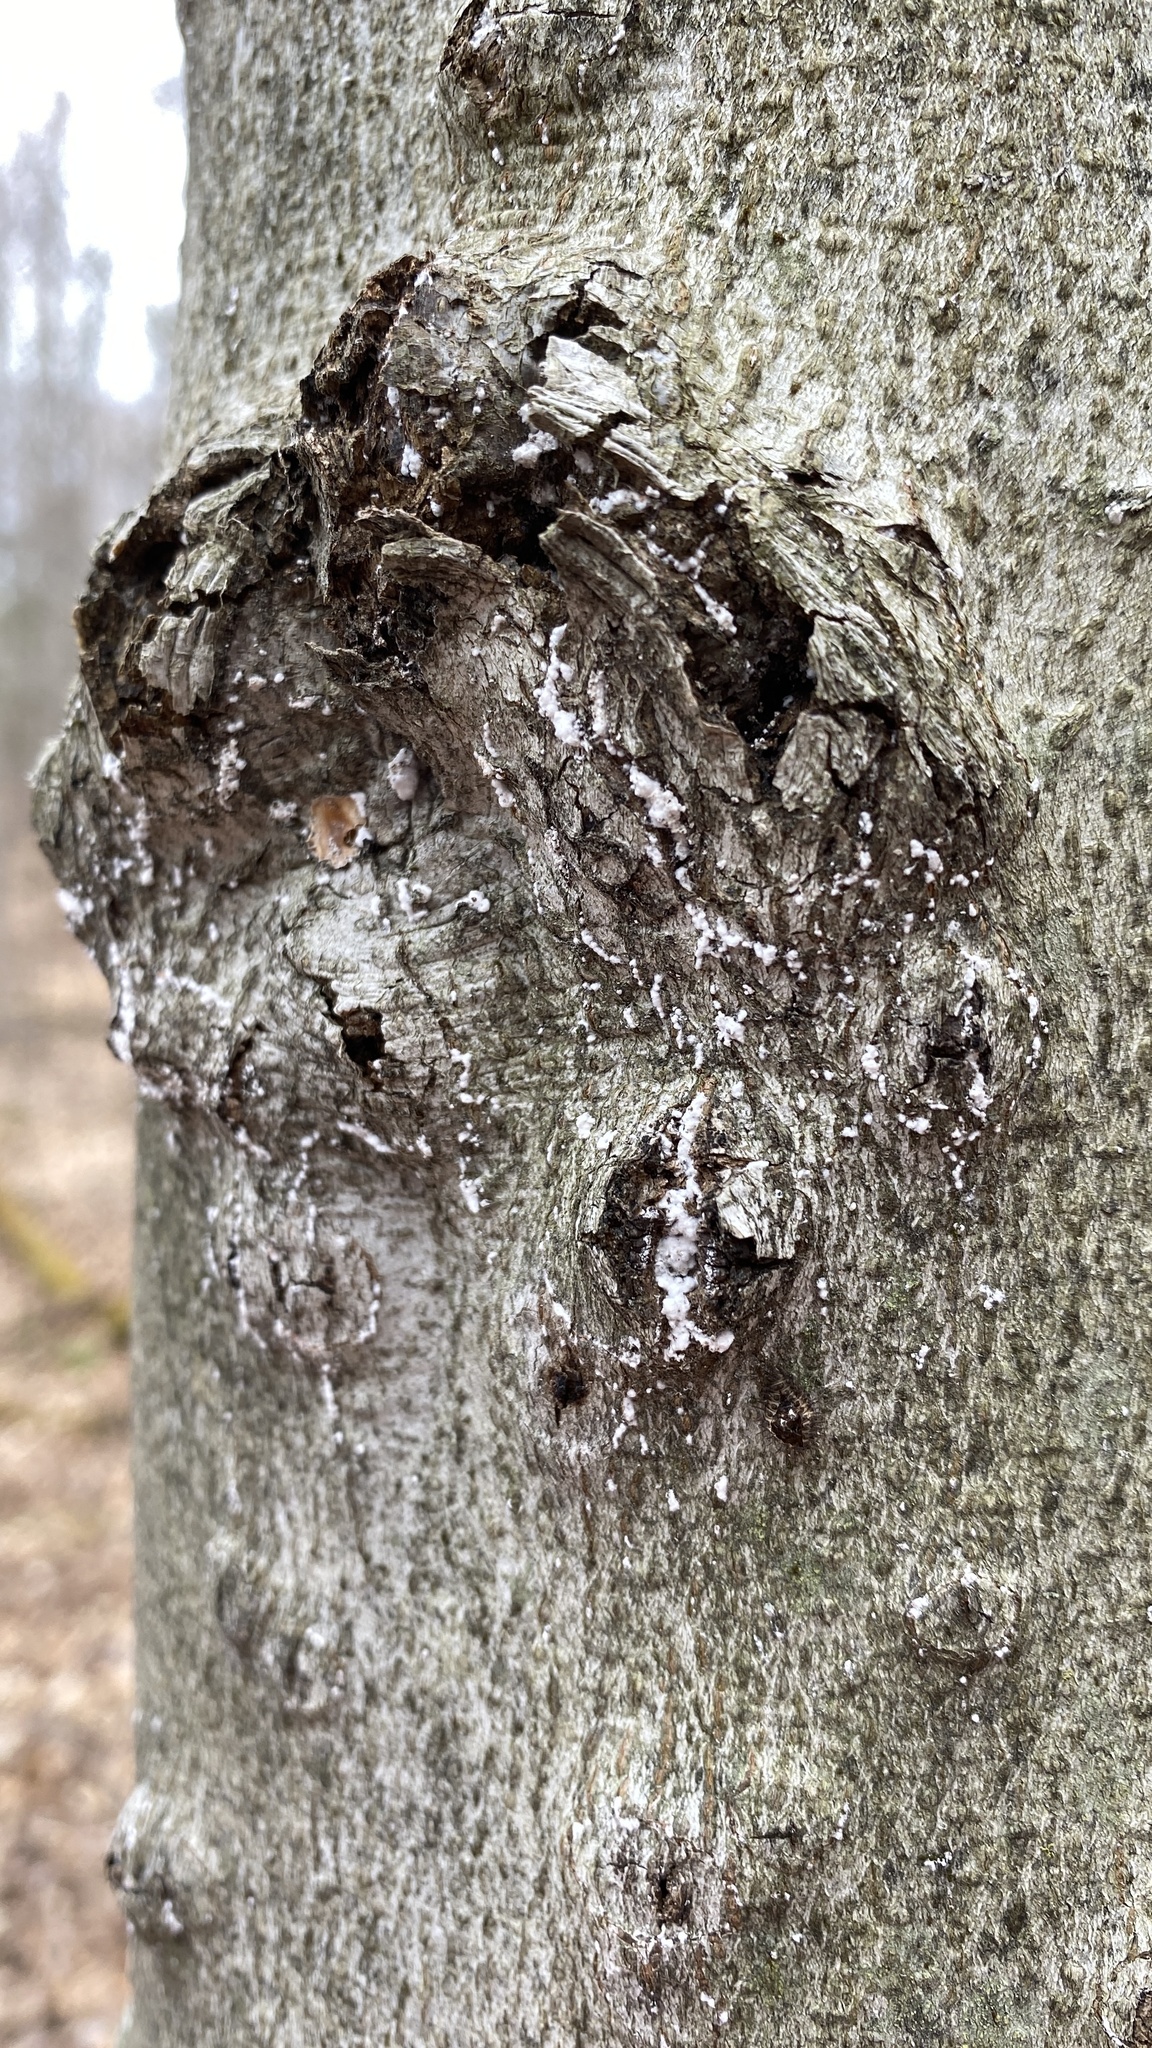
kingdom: Animalia
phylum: Arthropoda
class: Insecta
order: Hemiptera
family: Eriococcidae
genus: Cryptococcus
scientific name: Cryptococcus fagisuga
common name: Beech scale
